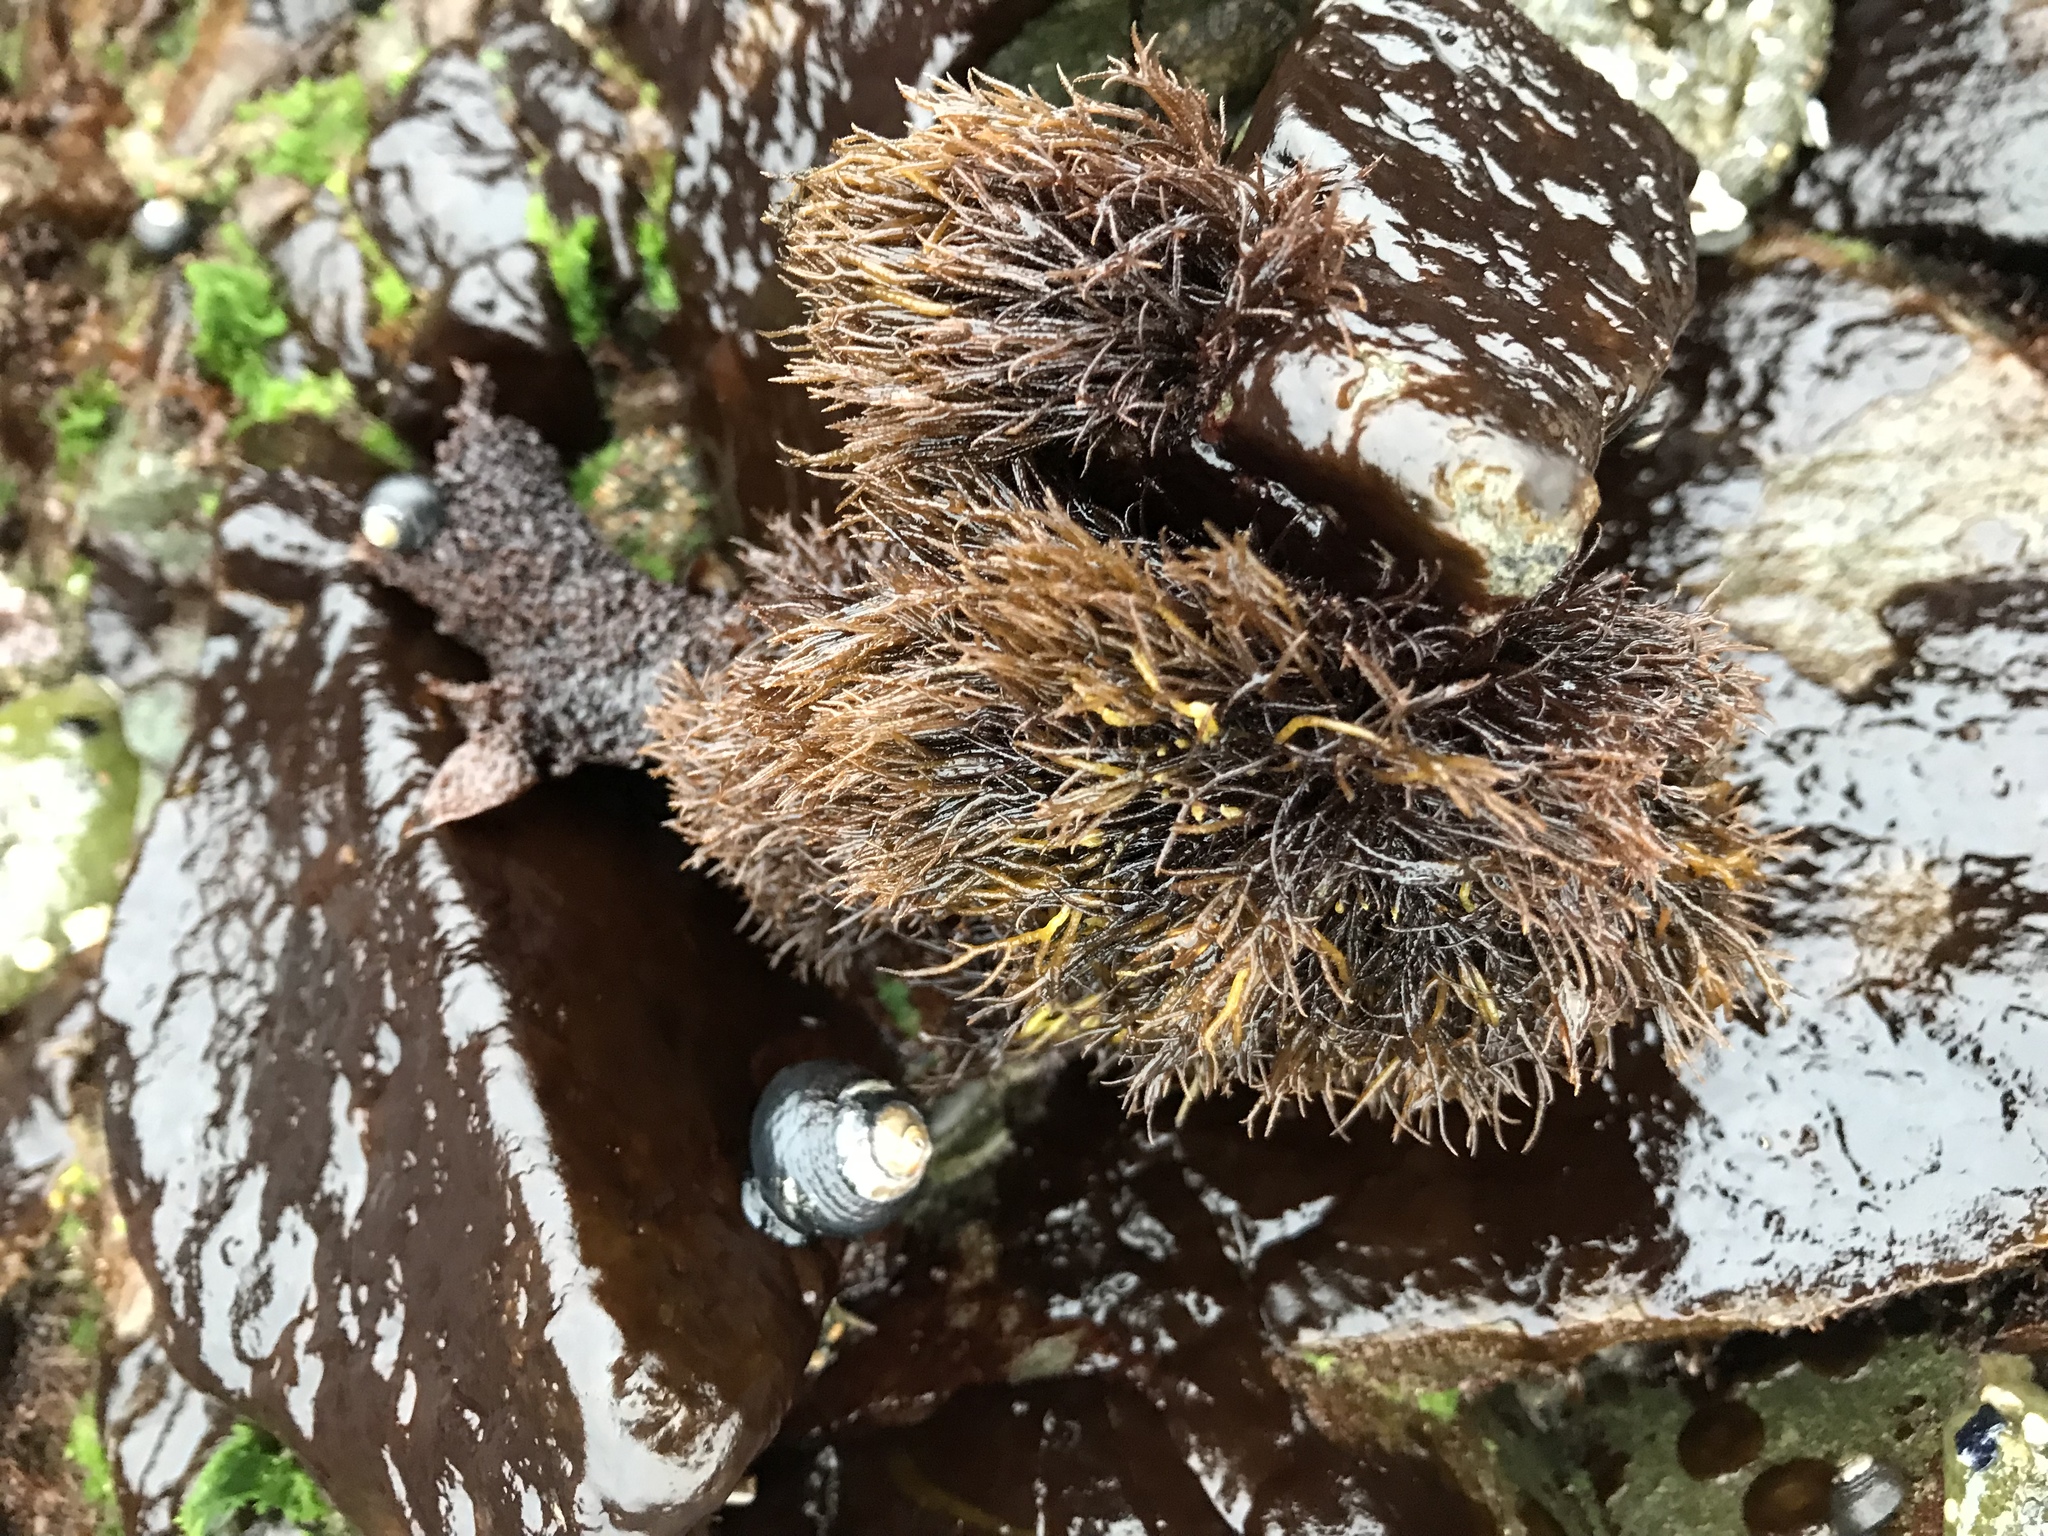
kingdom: Plantae
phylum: Rhodophyta
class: Florideophyceae
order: Gigartinales
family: Endocladiaceae
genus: Endocladia
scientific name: Endocladia muricata
